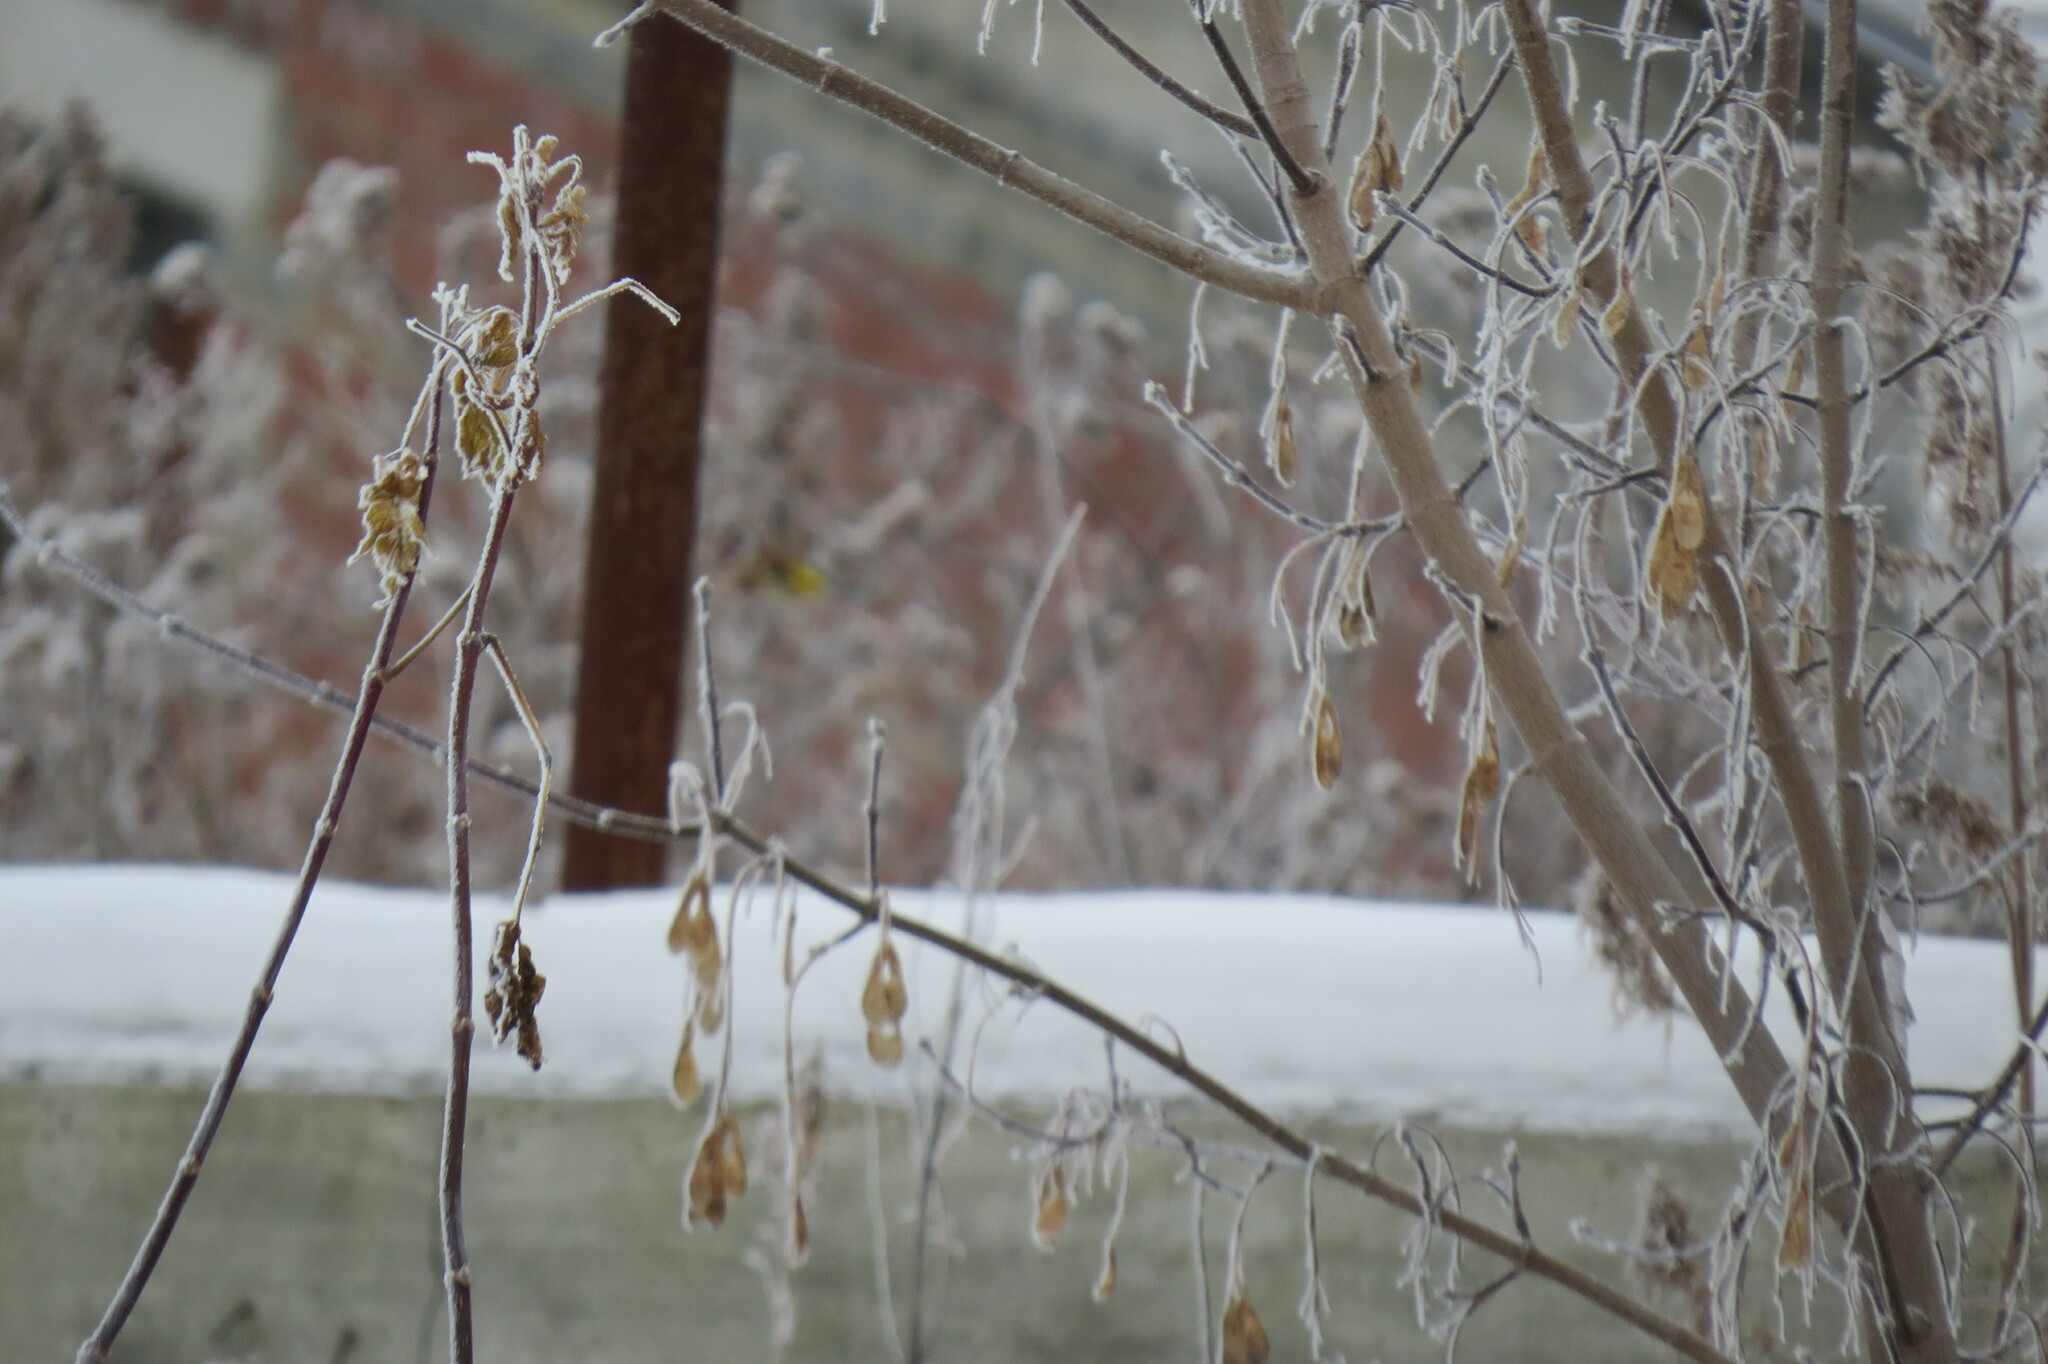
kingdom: Plantae
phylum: Tracheophyta
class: Liliopsida
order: Poales
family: Poaceae
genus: Chloris
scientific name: Chloris chloris
